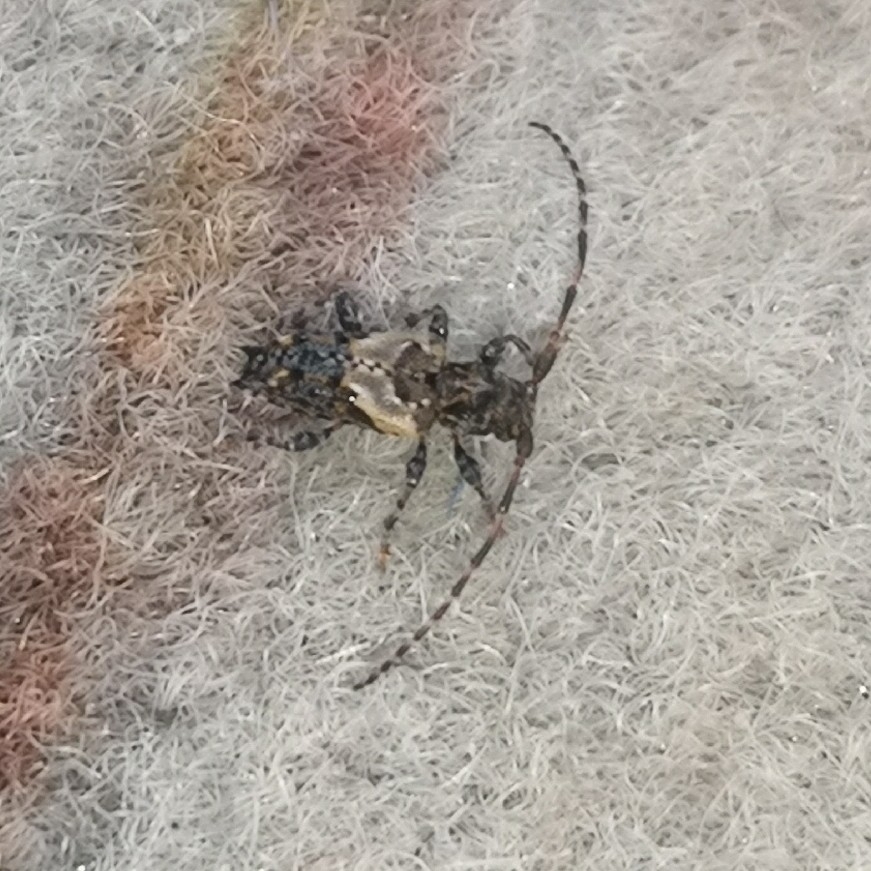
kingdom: Animalia
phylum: Arthropoda
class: Insecta
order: Coleoptera
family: Cerambycidae
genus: Pogonocherus
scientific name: Pogonocherus hispidus
